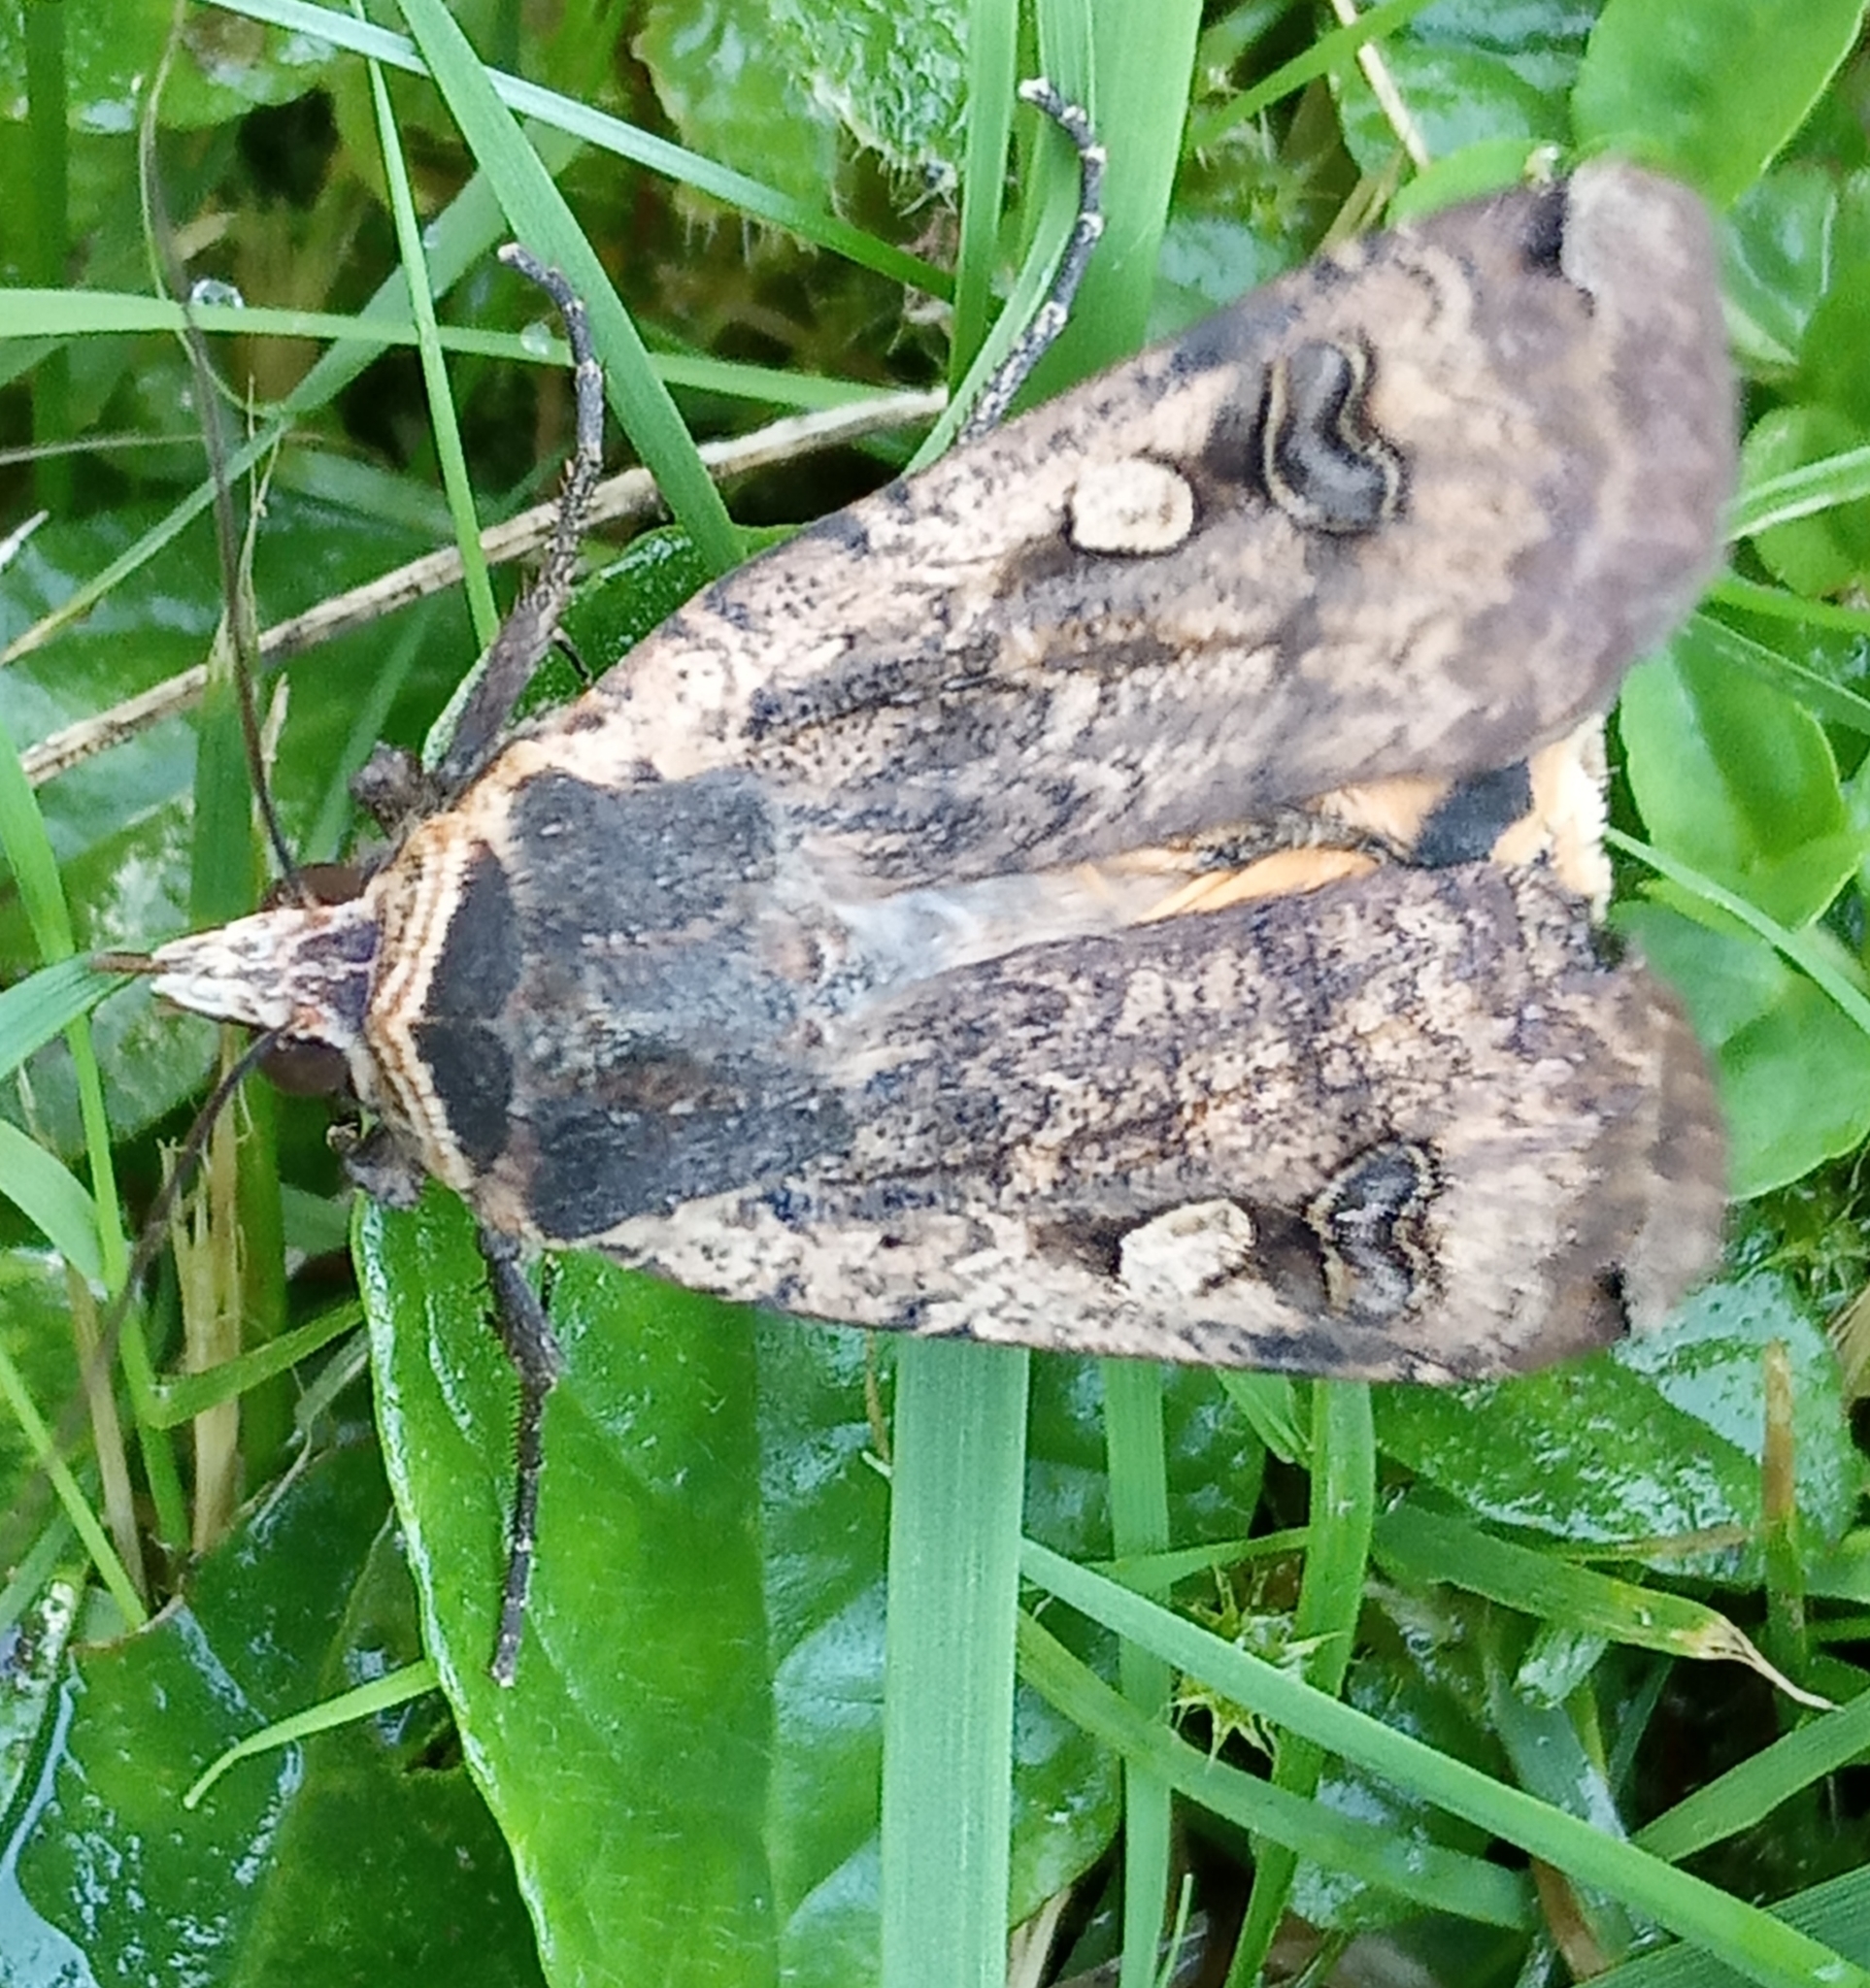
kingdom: Animalia
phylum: Arthropoda
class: Insecta
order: Lepidoptera
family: Noctuidae
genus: Noctua
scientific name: Noctua pronuba
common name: Large yellow underwing
